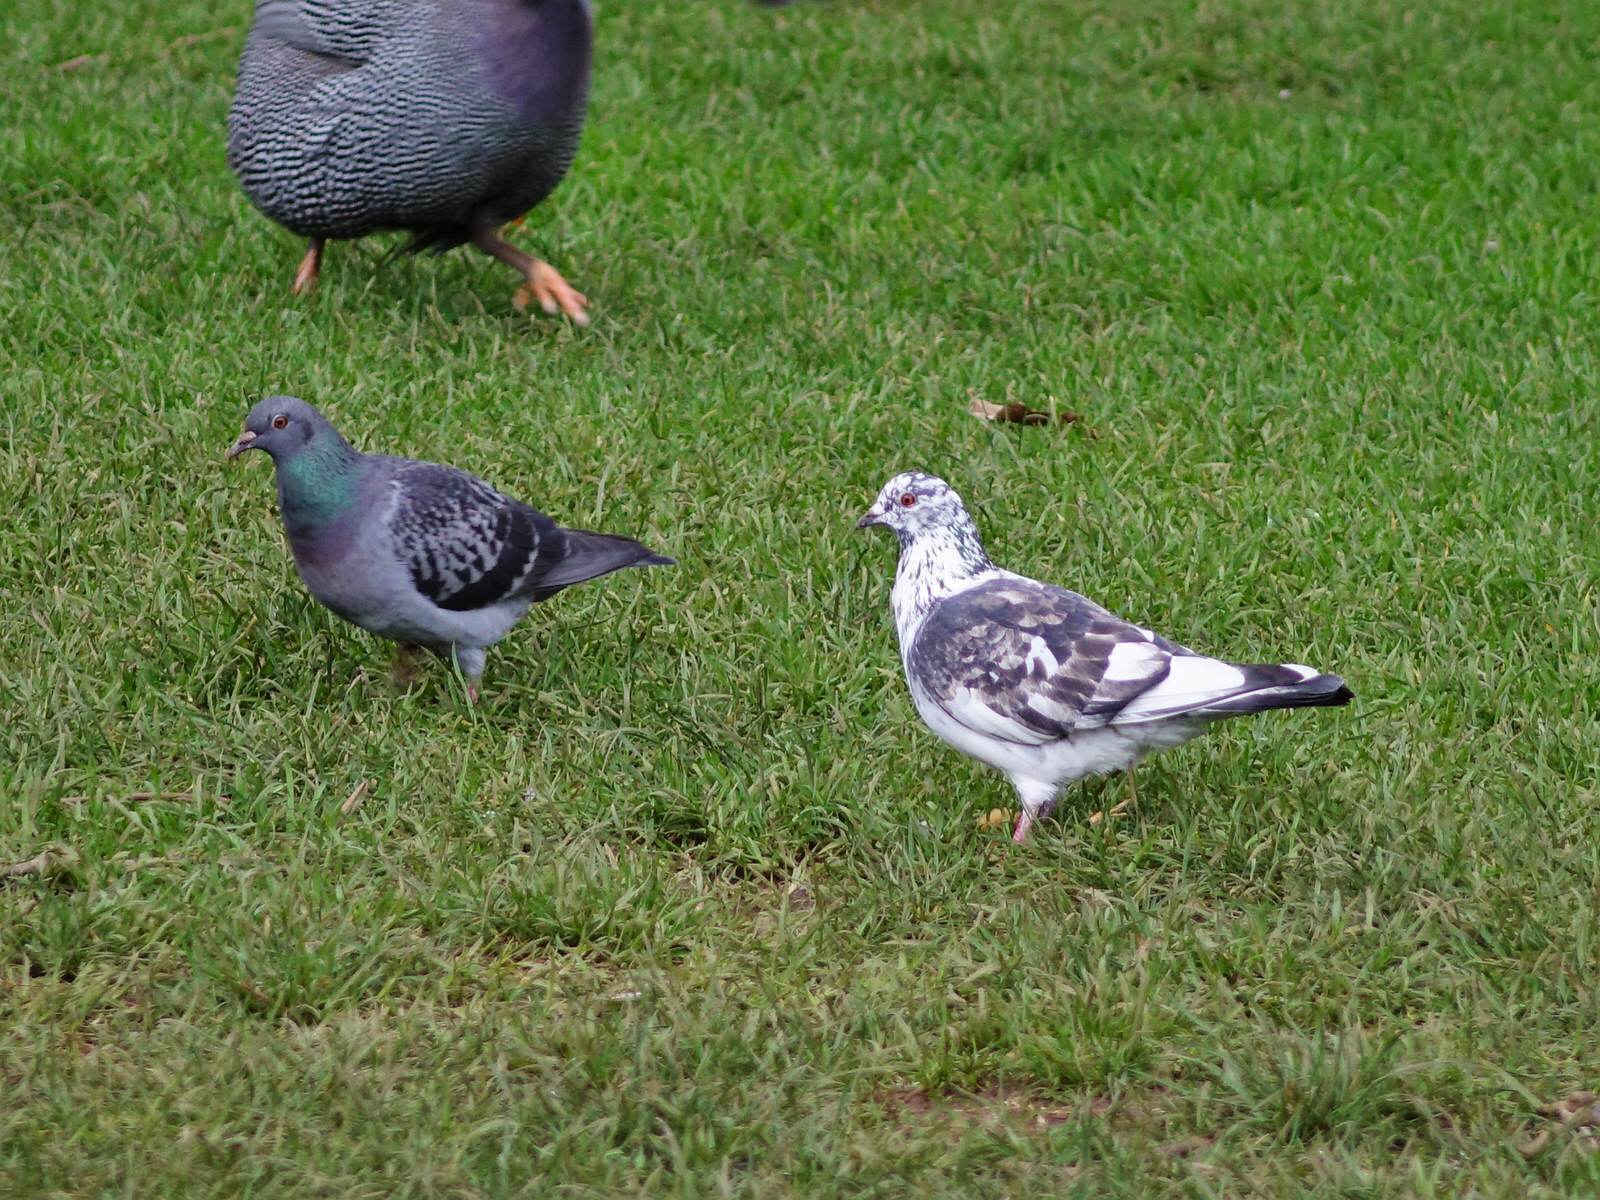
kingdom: Animalia
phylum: Chordata
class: Aves
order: Columbiformes
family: Columbidae
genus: Columba
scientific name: Columba livia
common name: Rock pigeon
